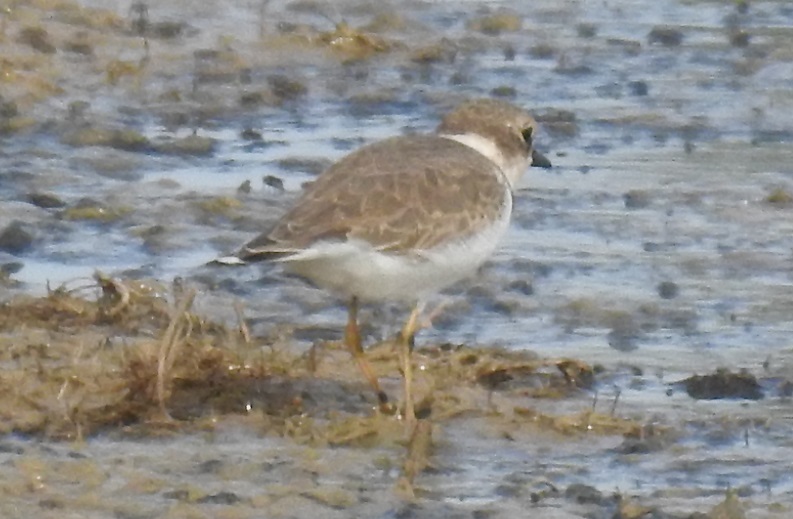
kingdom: Animalia
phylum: Chordata
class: Aves
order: Charadriiformes
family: Charadriidae
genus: Charadrius
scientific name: Charadrius dubius
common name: Little ringed plover
